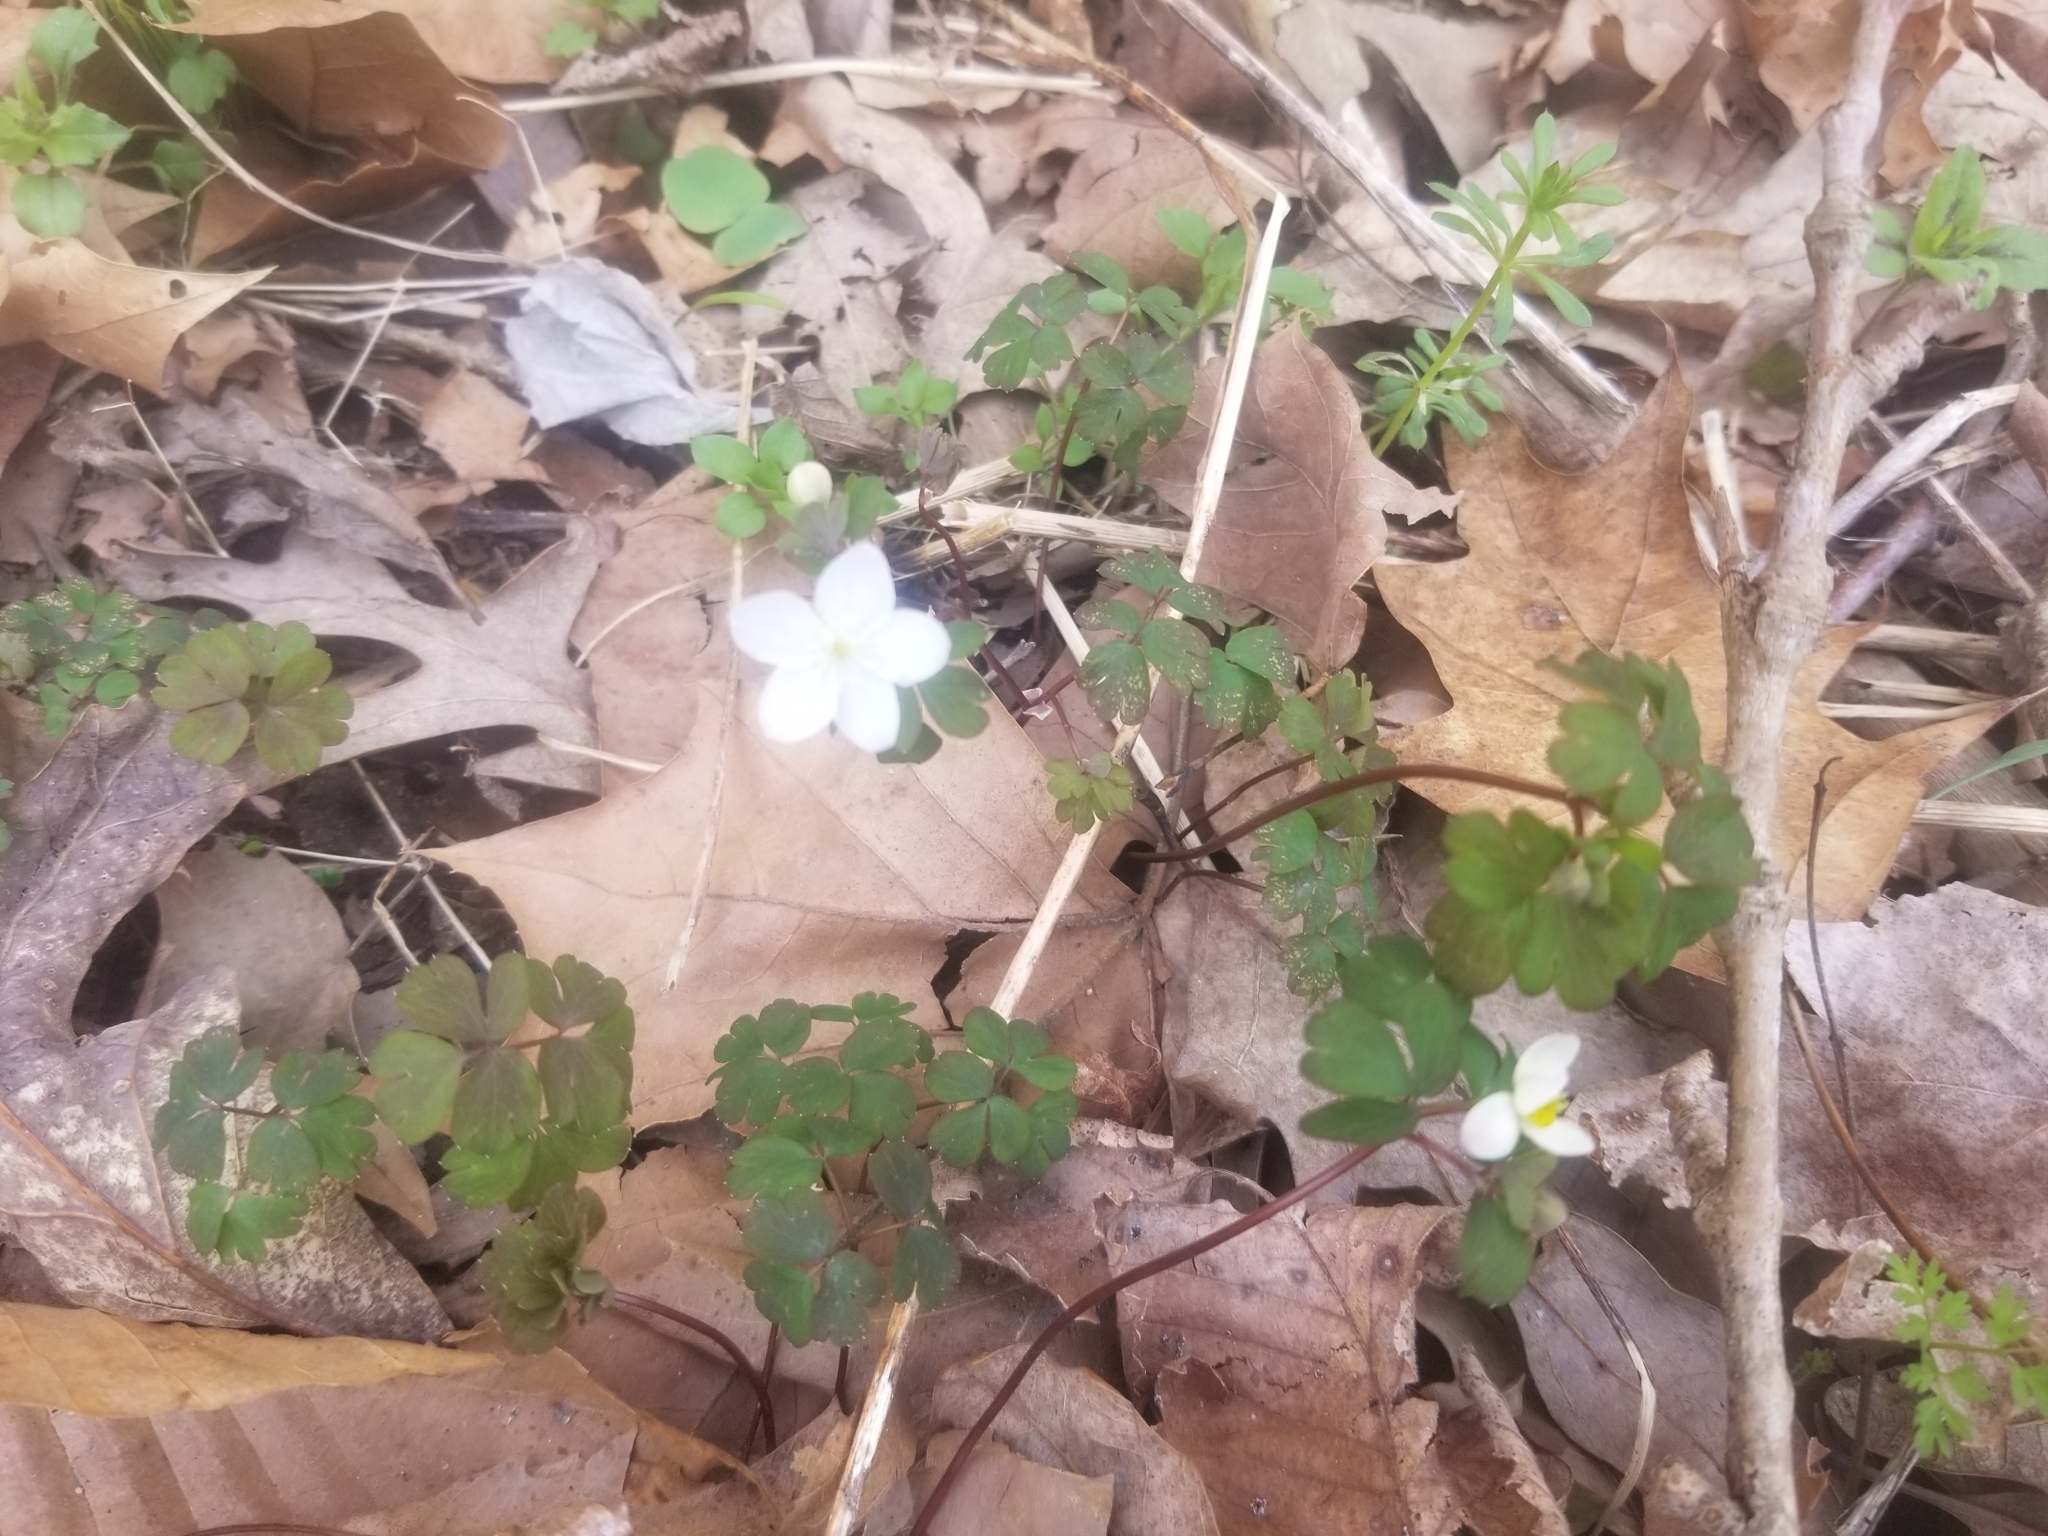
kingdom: Plantae
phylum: Tracheophyta
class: Magnoliopsida
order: Ranunculales
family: Ranunculaceae
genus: Enemion
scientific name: Enemion biternatum
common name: Eastern false rue-anemone
